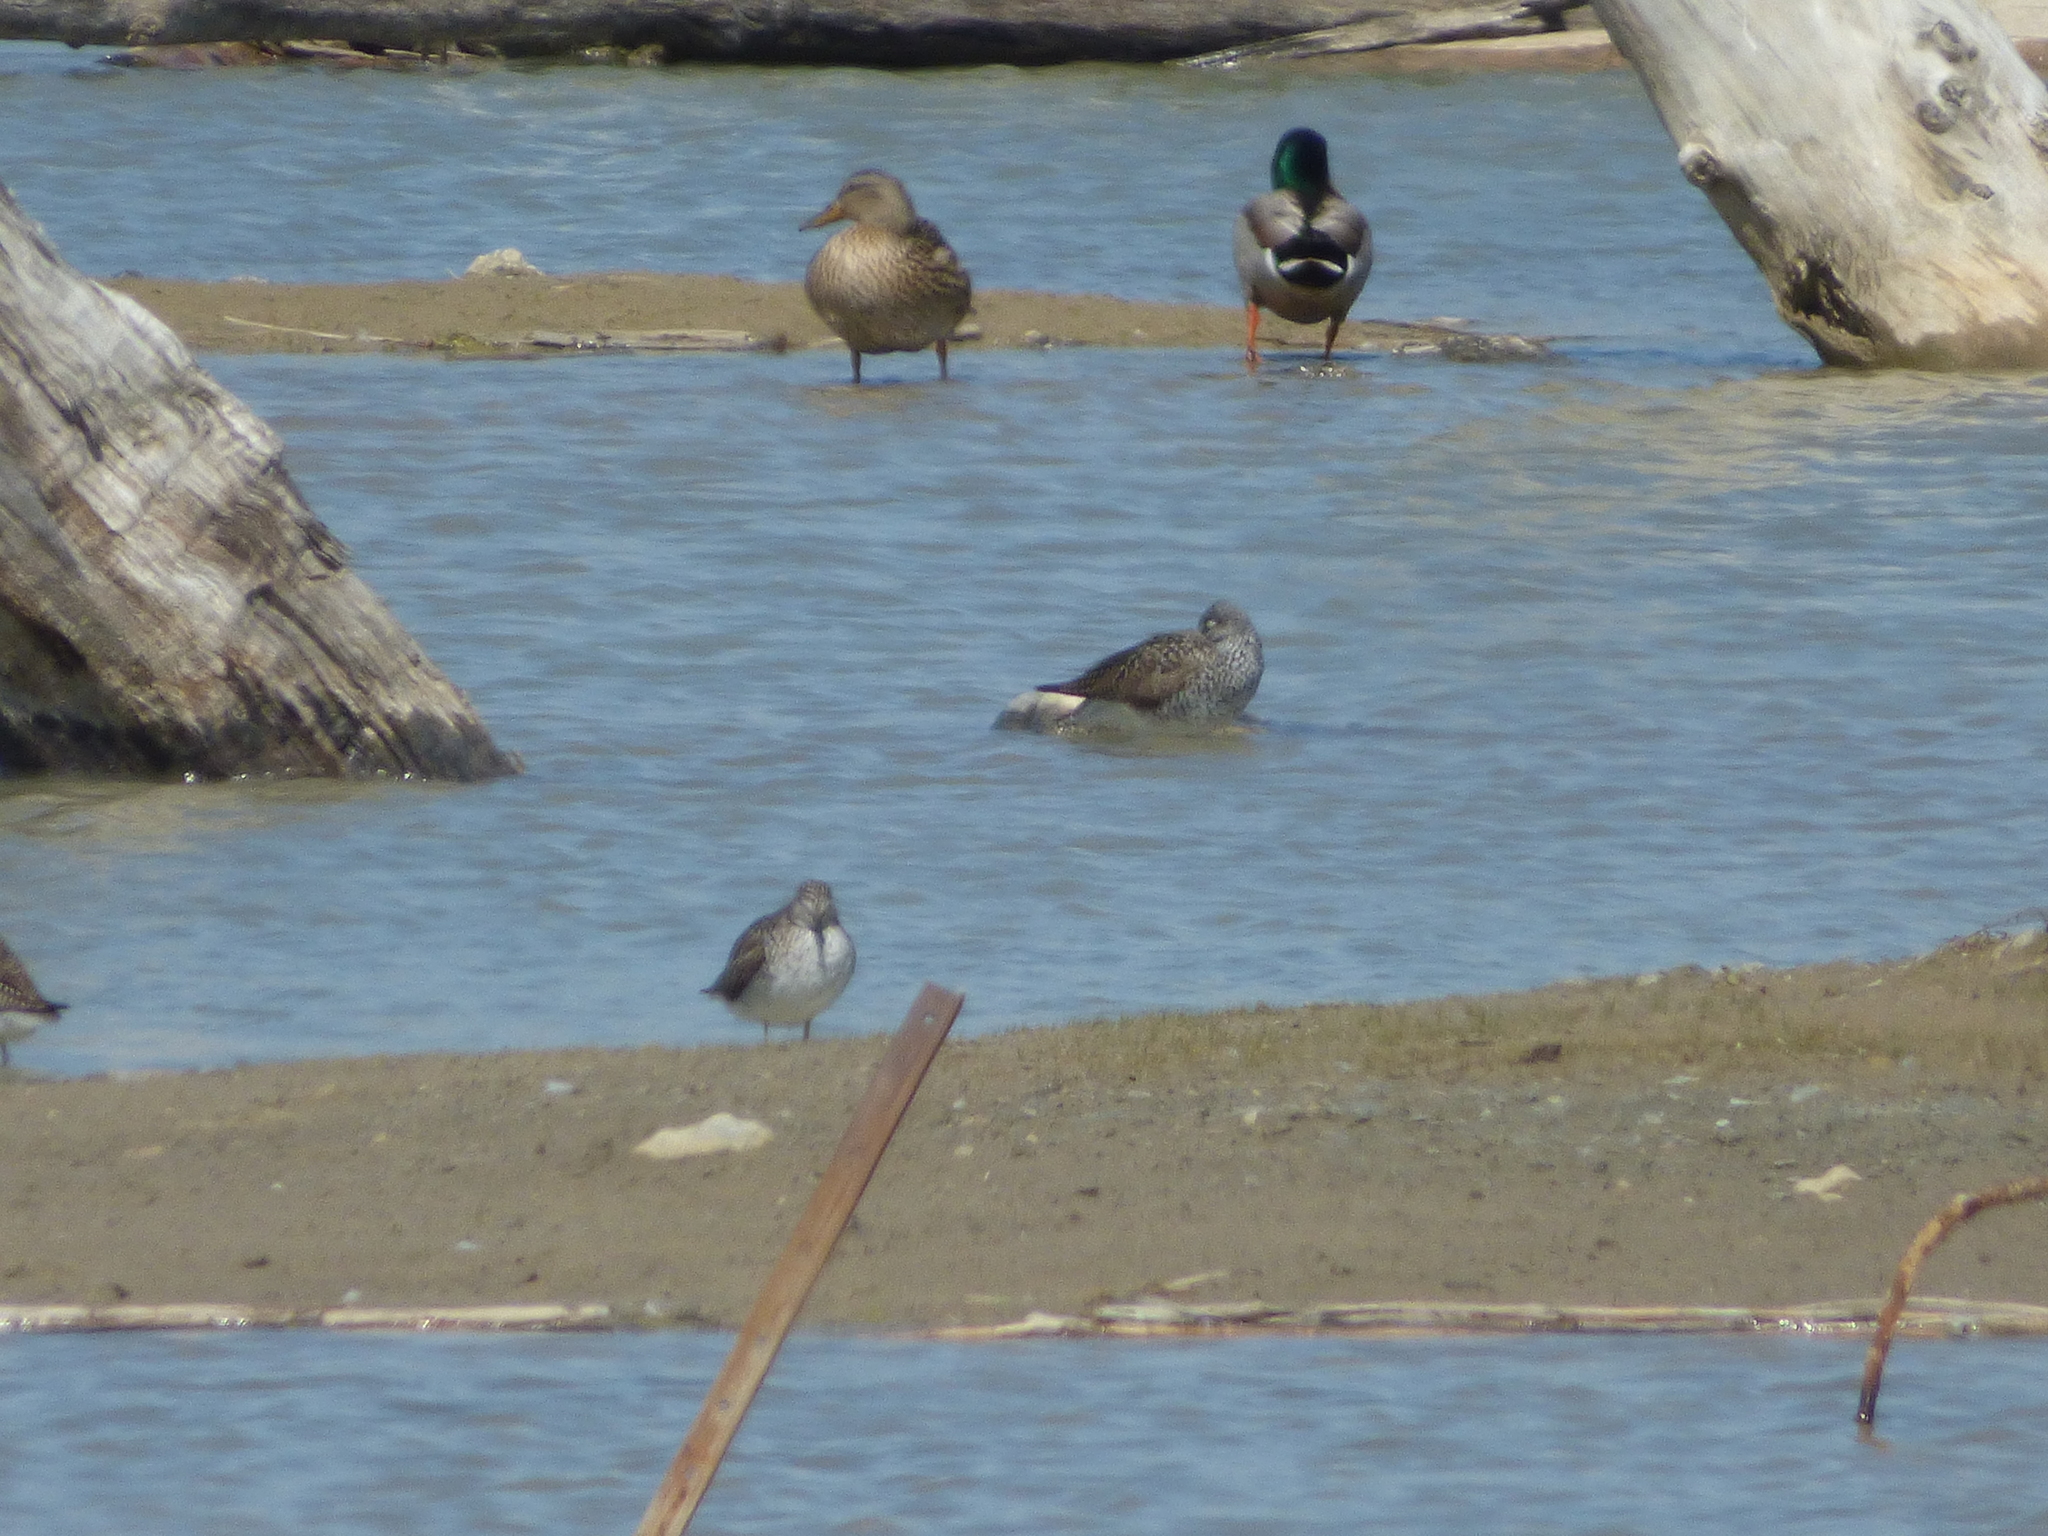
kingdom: Animalia
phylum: Chordata
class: Aves
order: Charadriiformes
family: Scolopacidae
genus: Tringa
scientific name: Tringa melanoleuca
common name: Greater yellowlegs
